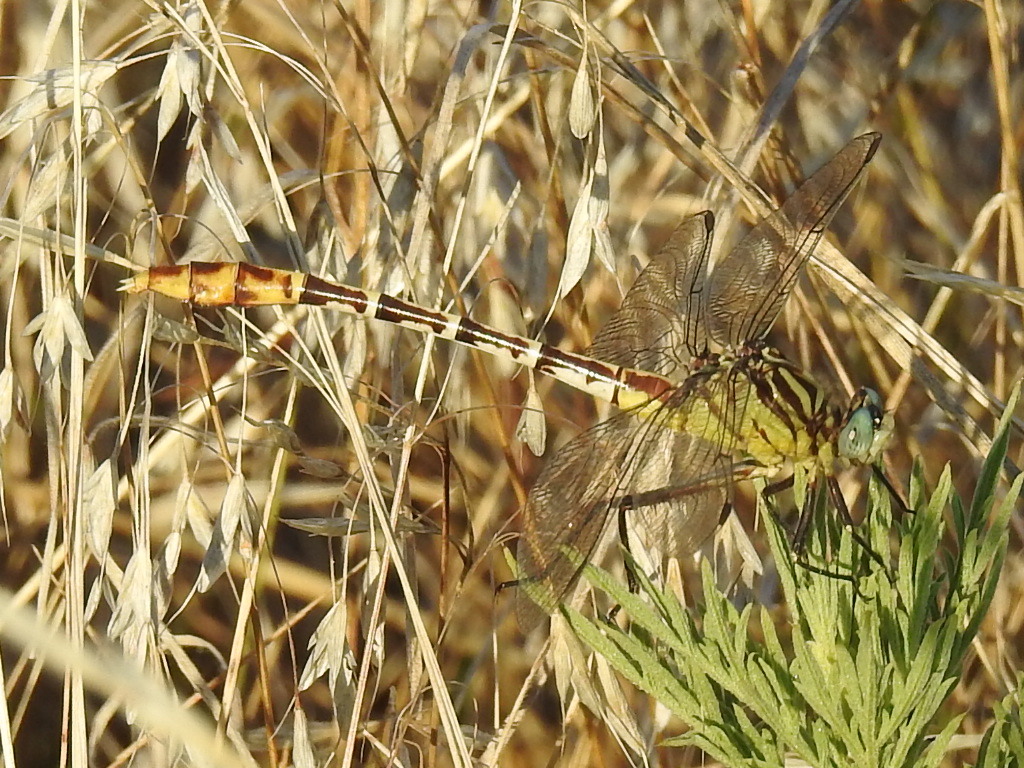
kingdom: Animalia
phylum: Arthropoda
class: Insecta
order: Odonata
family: Gomphidae
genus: Dromogomphus
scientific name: Dromogomphus spoliatus
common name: Flag-tailed spinyleg
